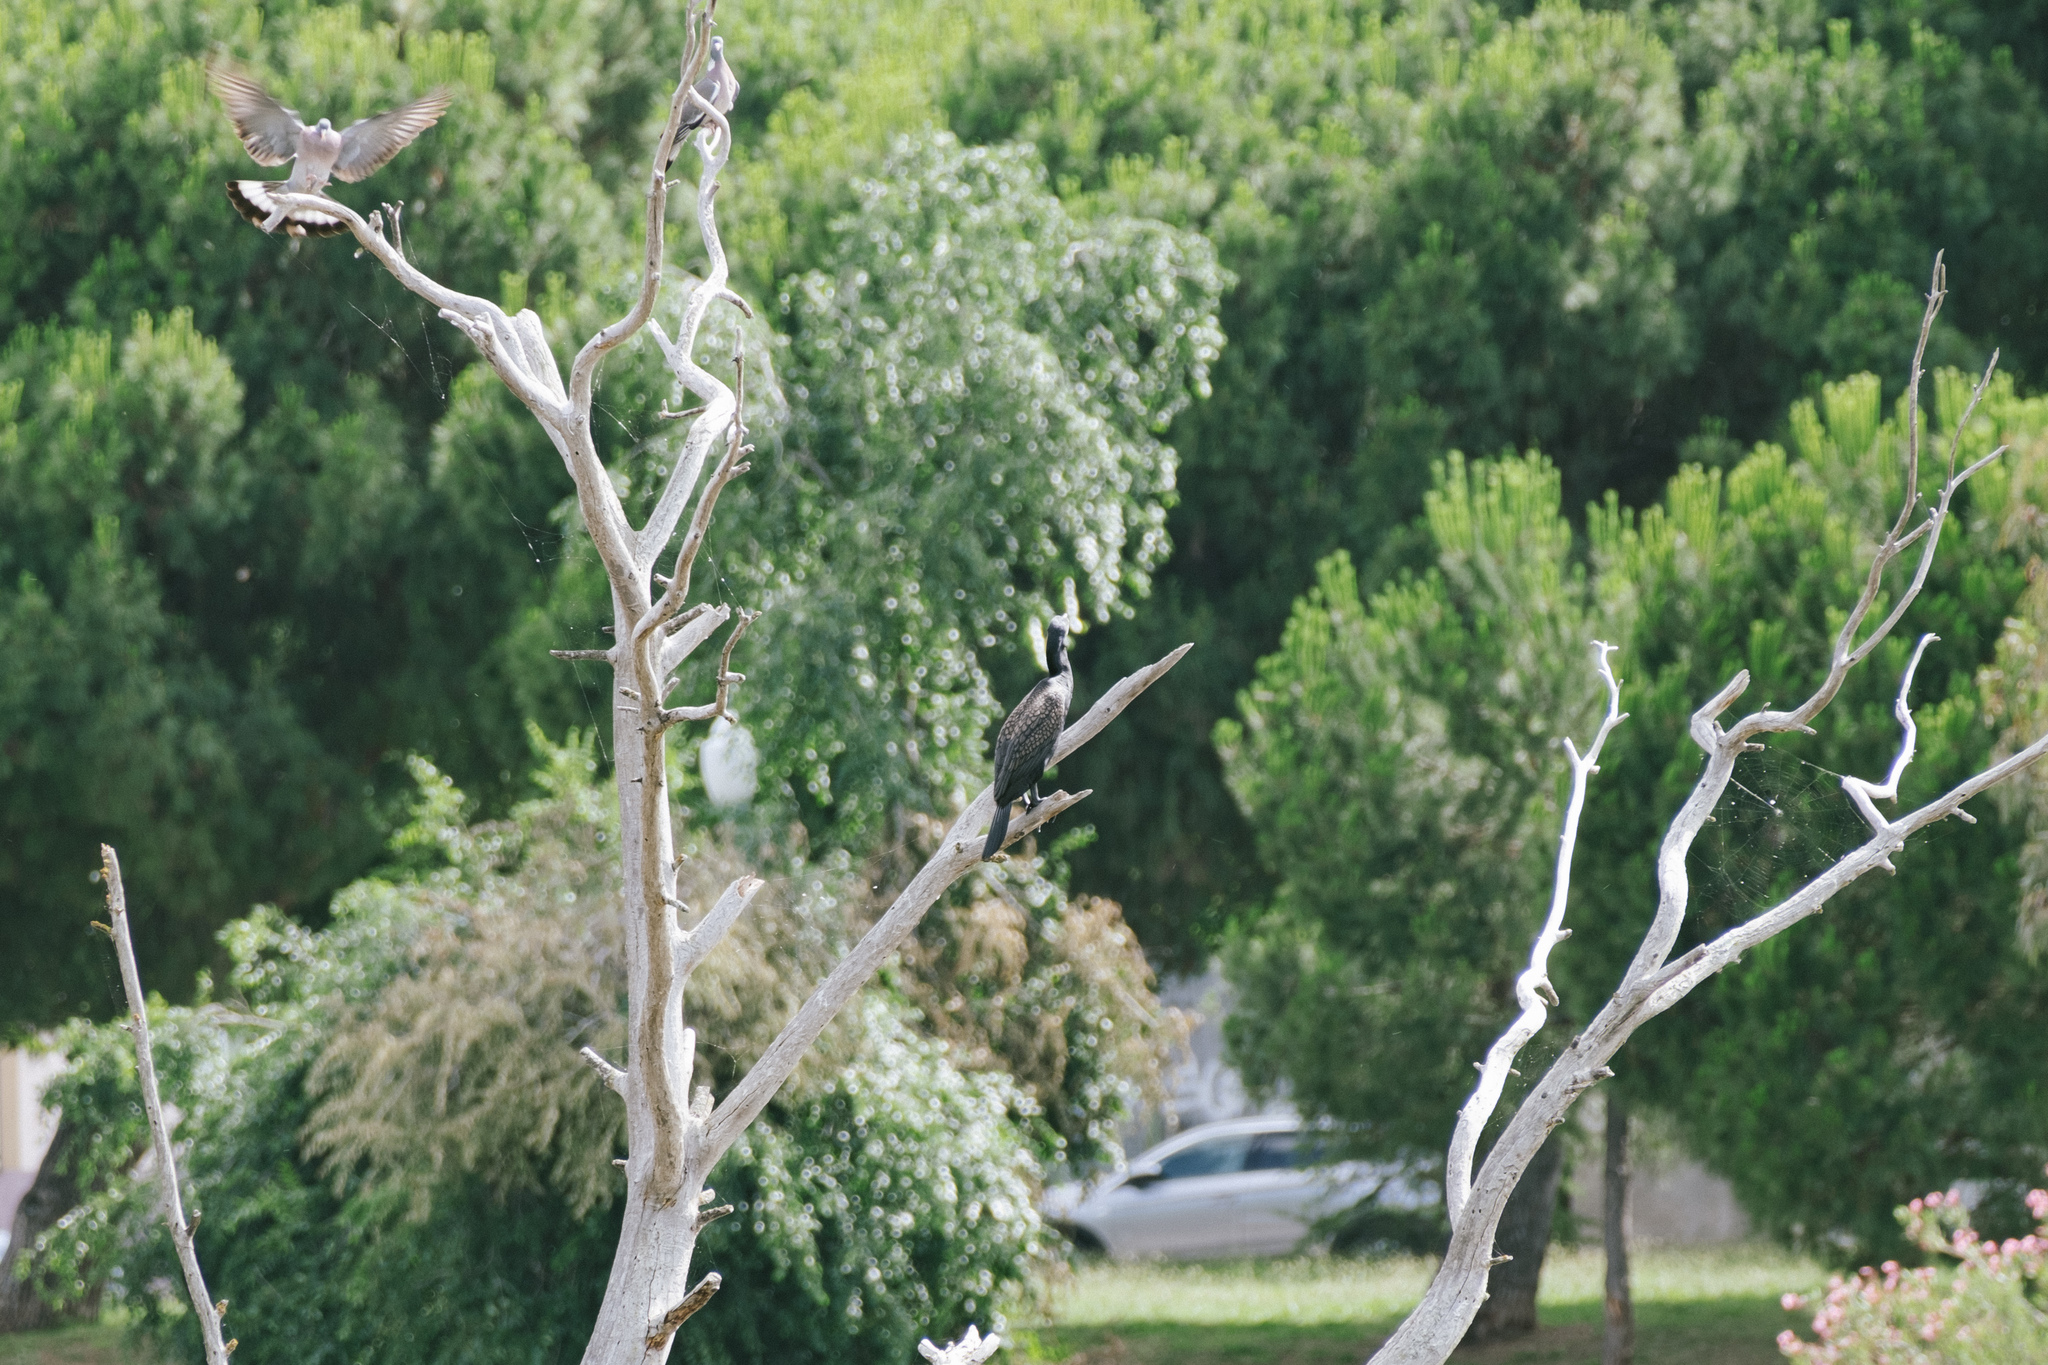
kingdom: Animalia
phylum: Chordata
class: Aves
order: Suliformes
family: Phalacrocoracidae
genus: Phalacrocorax
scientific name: Phalacrocorax carbo
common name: Great cormorant
